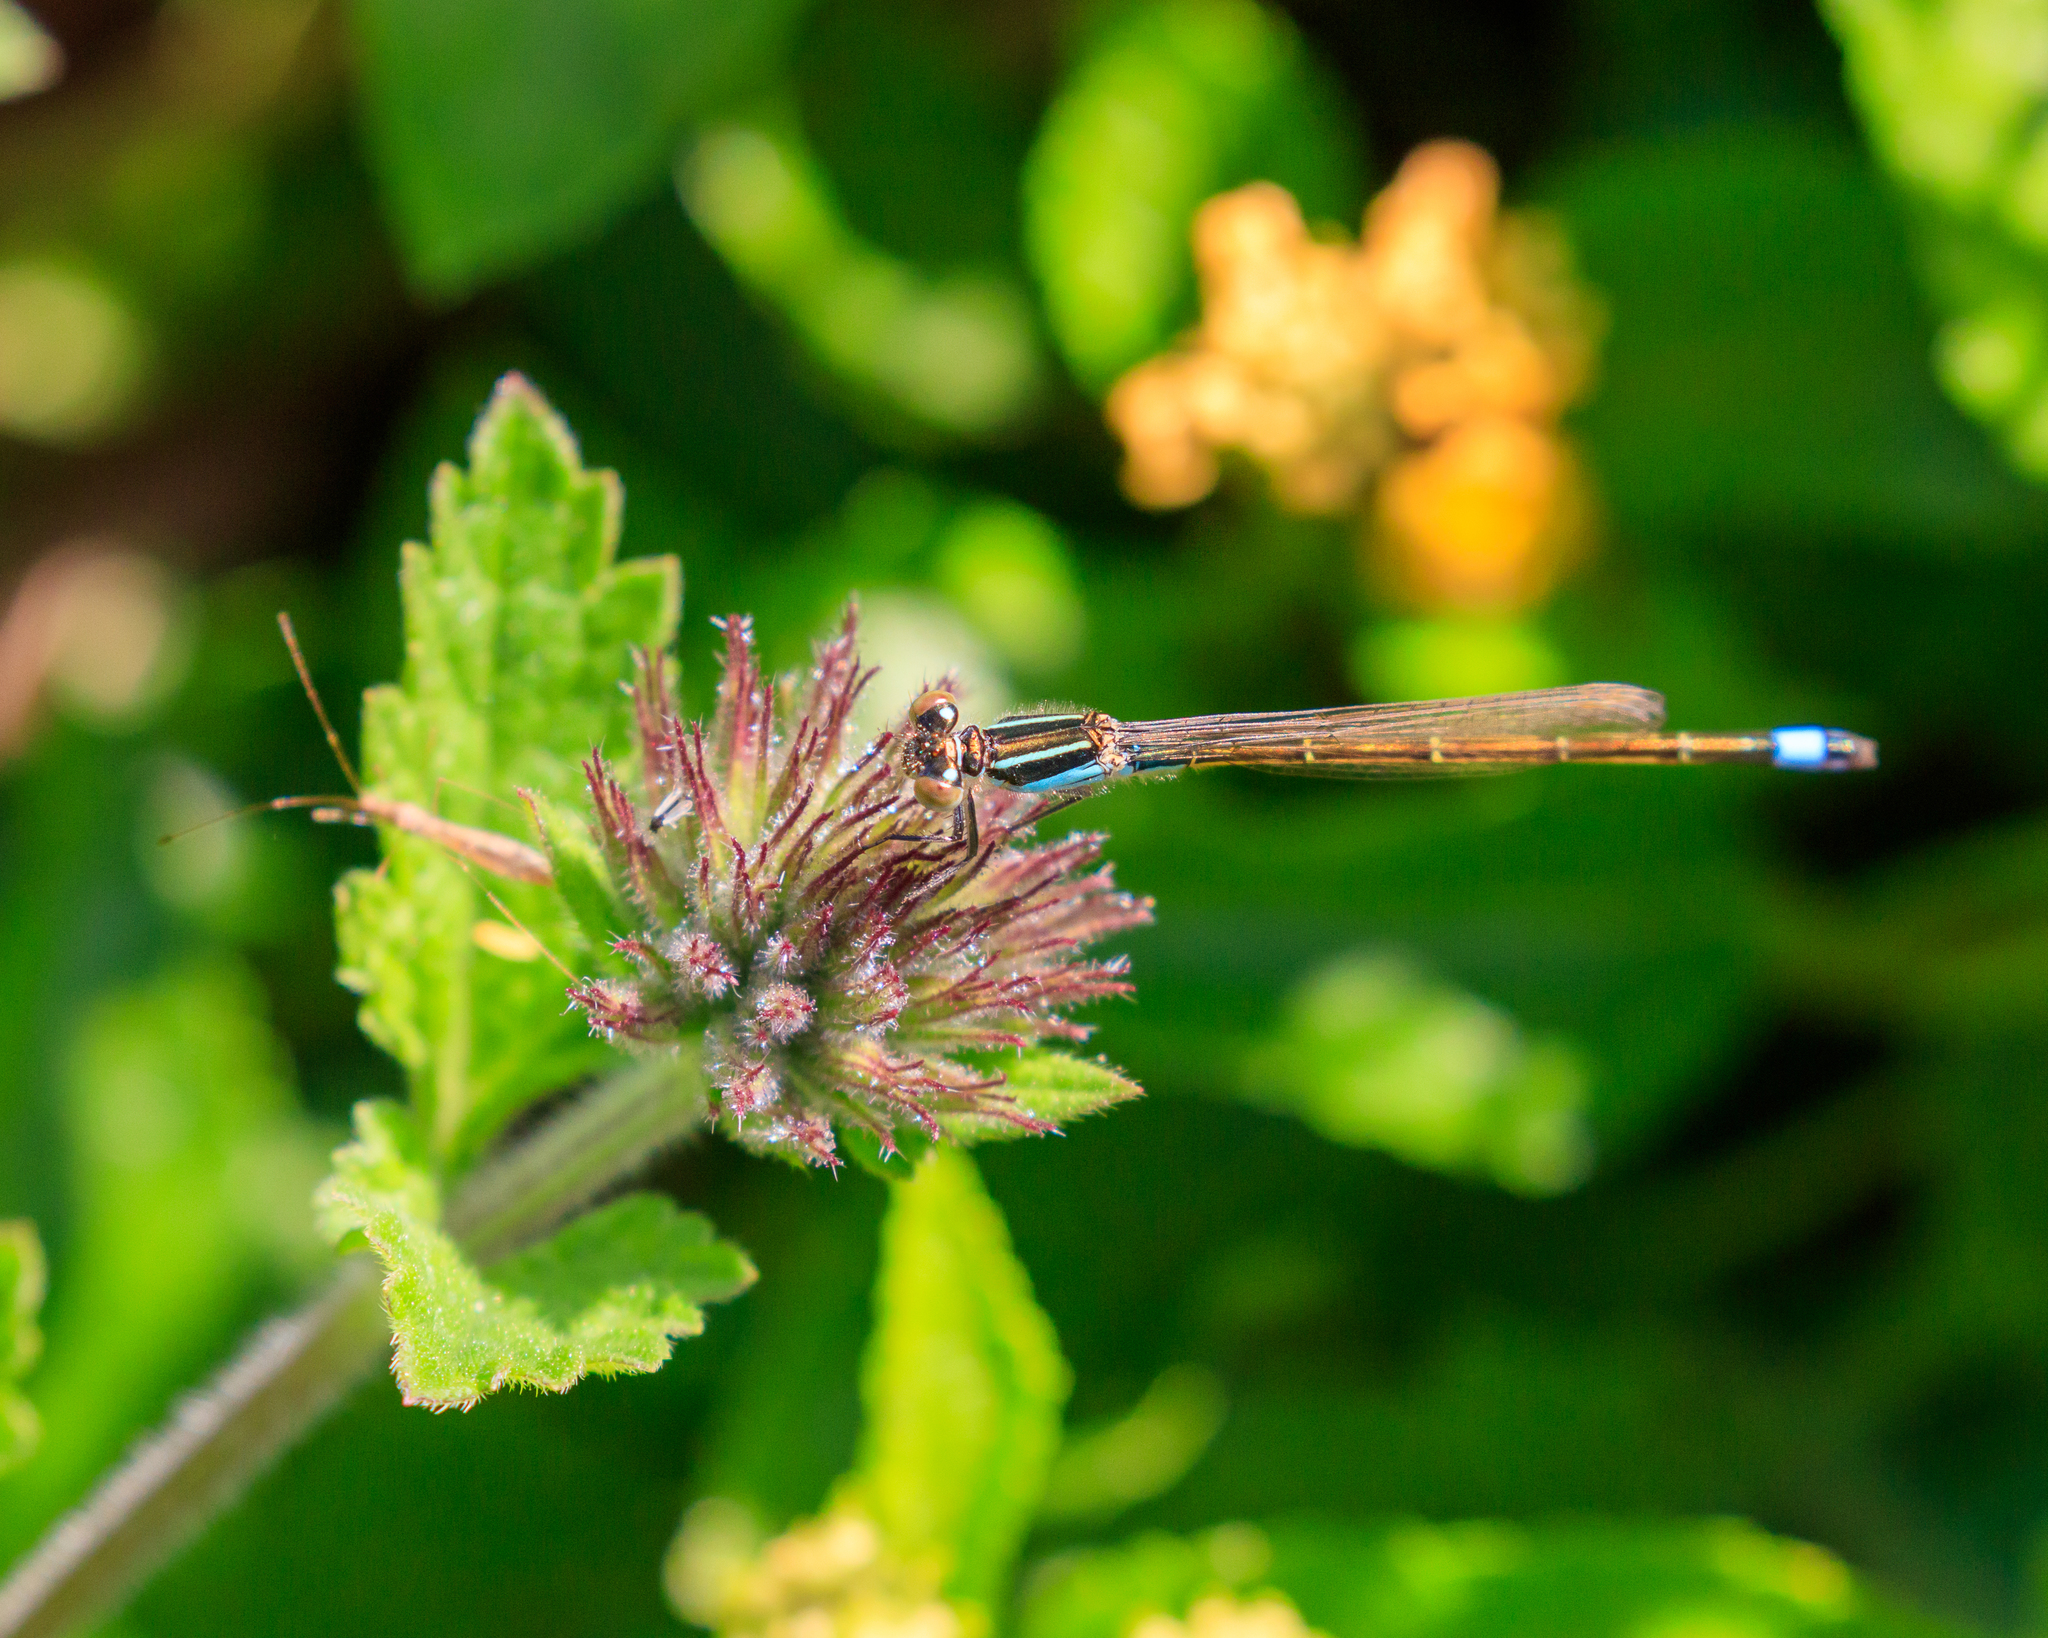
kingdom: Animalia
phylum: Arthropoda
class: Insecta
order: Odonata
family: Coenagrionidae
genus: Ischnura
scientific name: Ischnura ramburii
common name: Rambur's forktail
